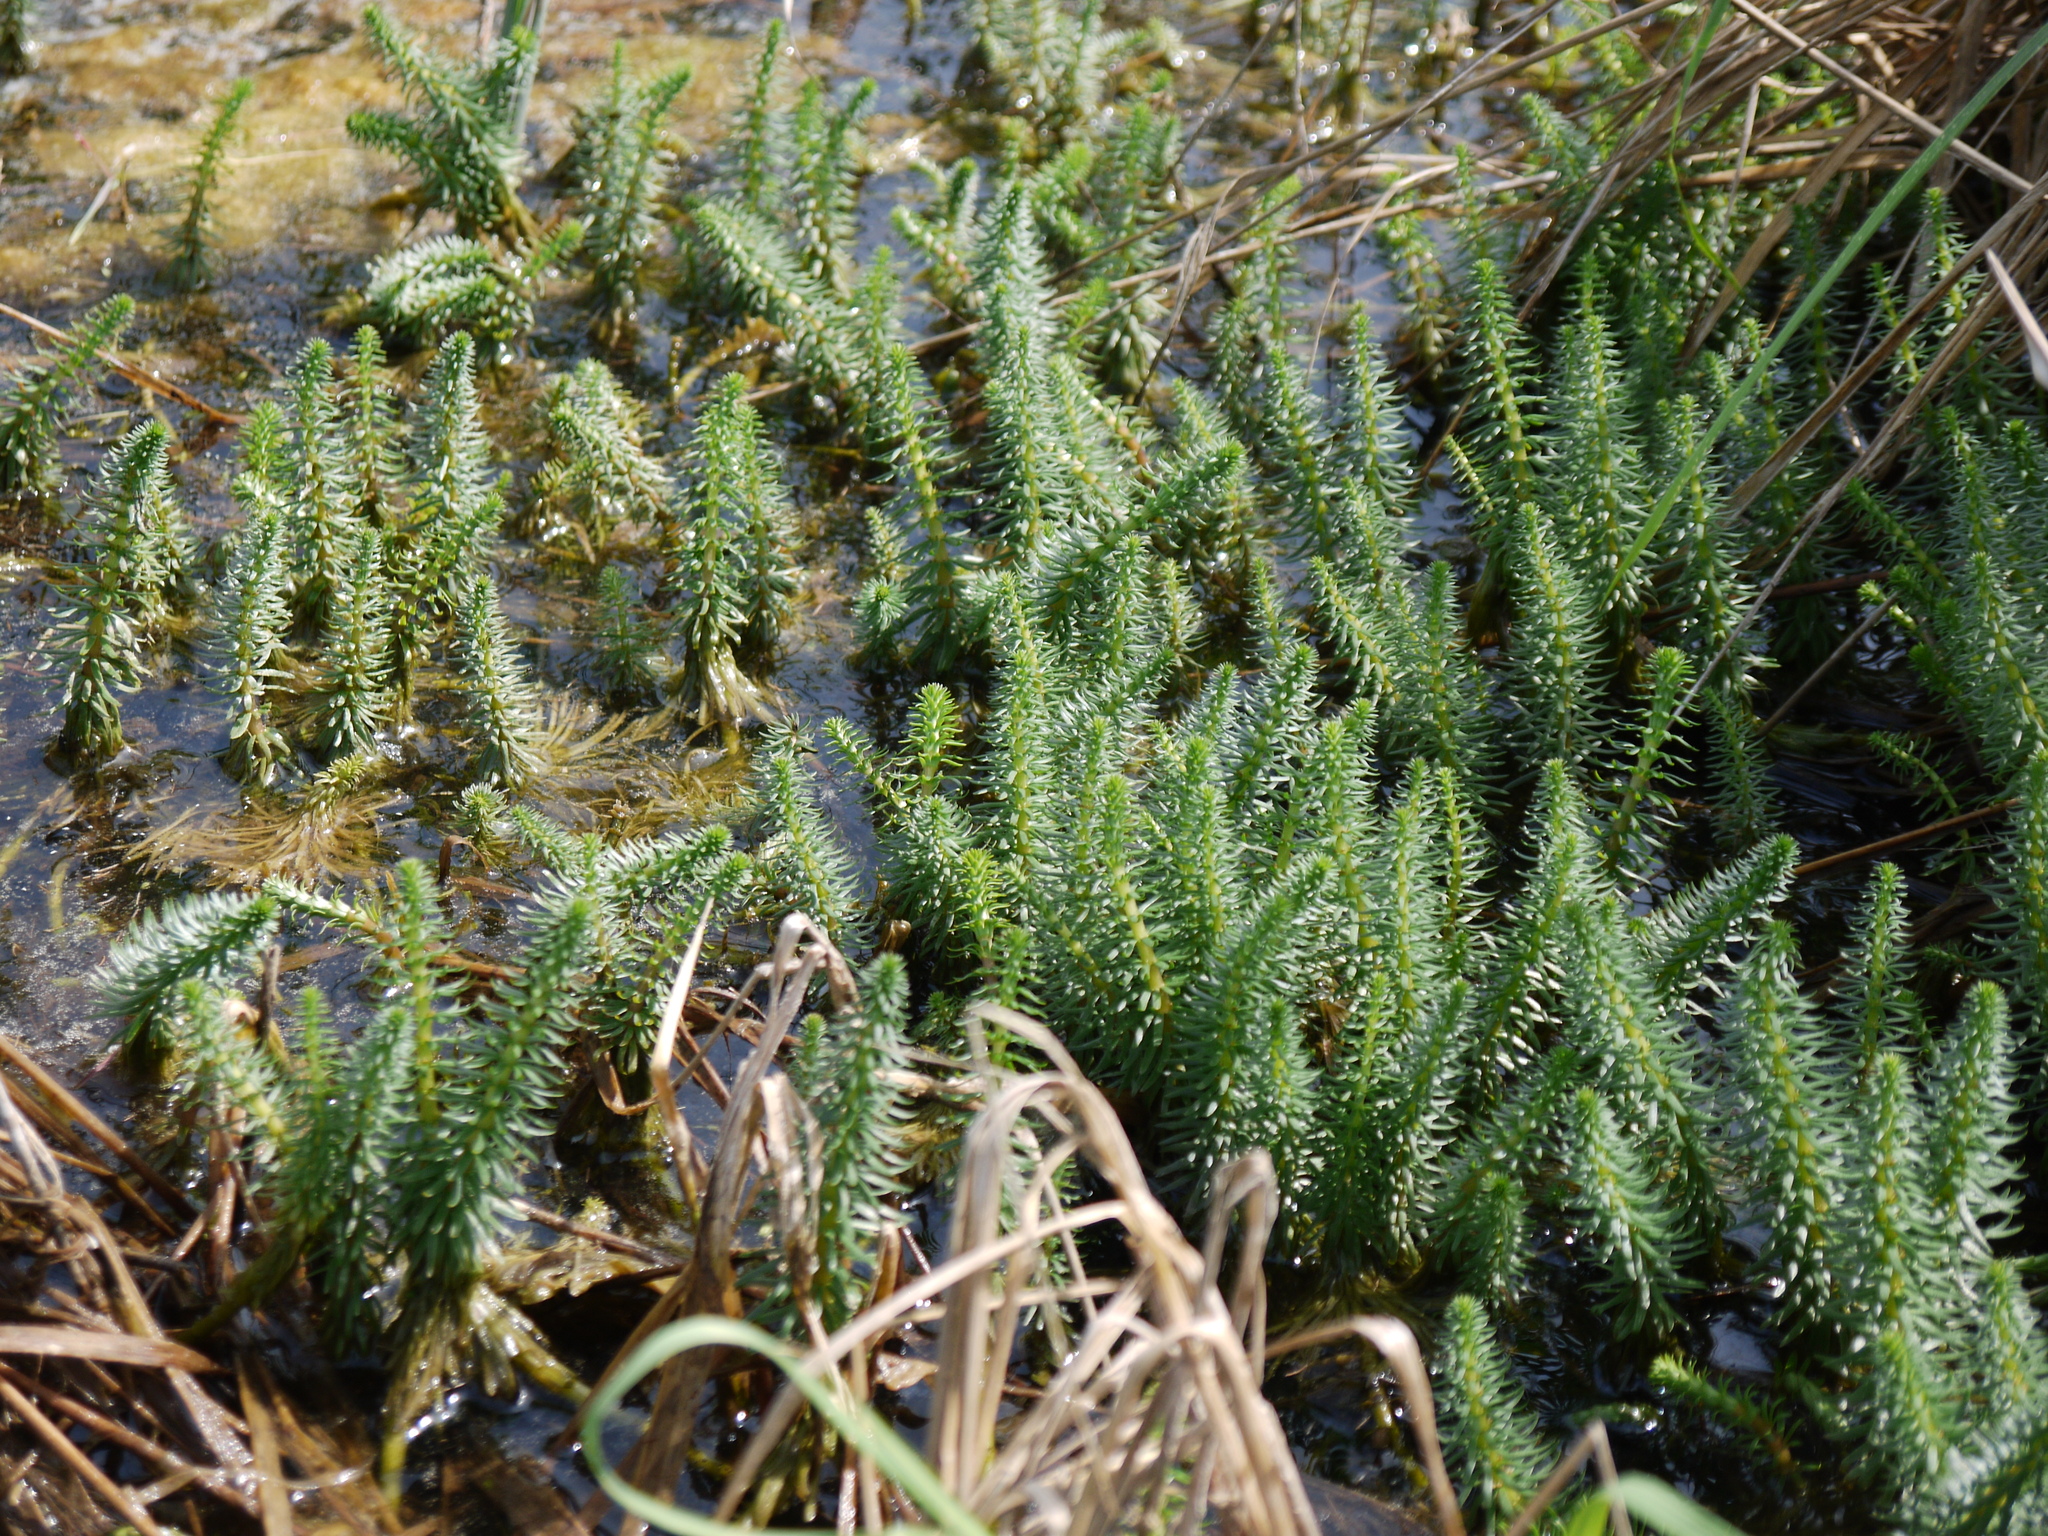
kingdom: Plantae
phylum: Tracheophyta
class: Magnoliopsida
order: Lamiales
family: Plantaginaceae
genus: Hippuris
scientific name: Hippuris vulgaris
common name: Mare's-tail
